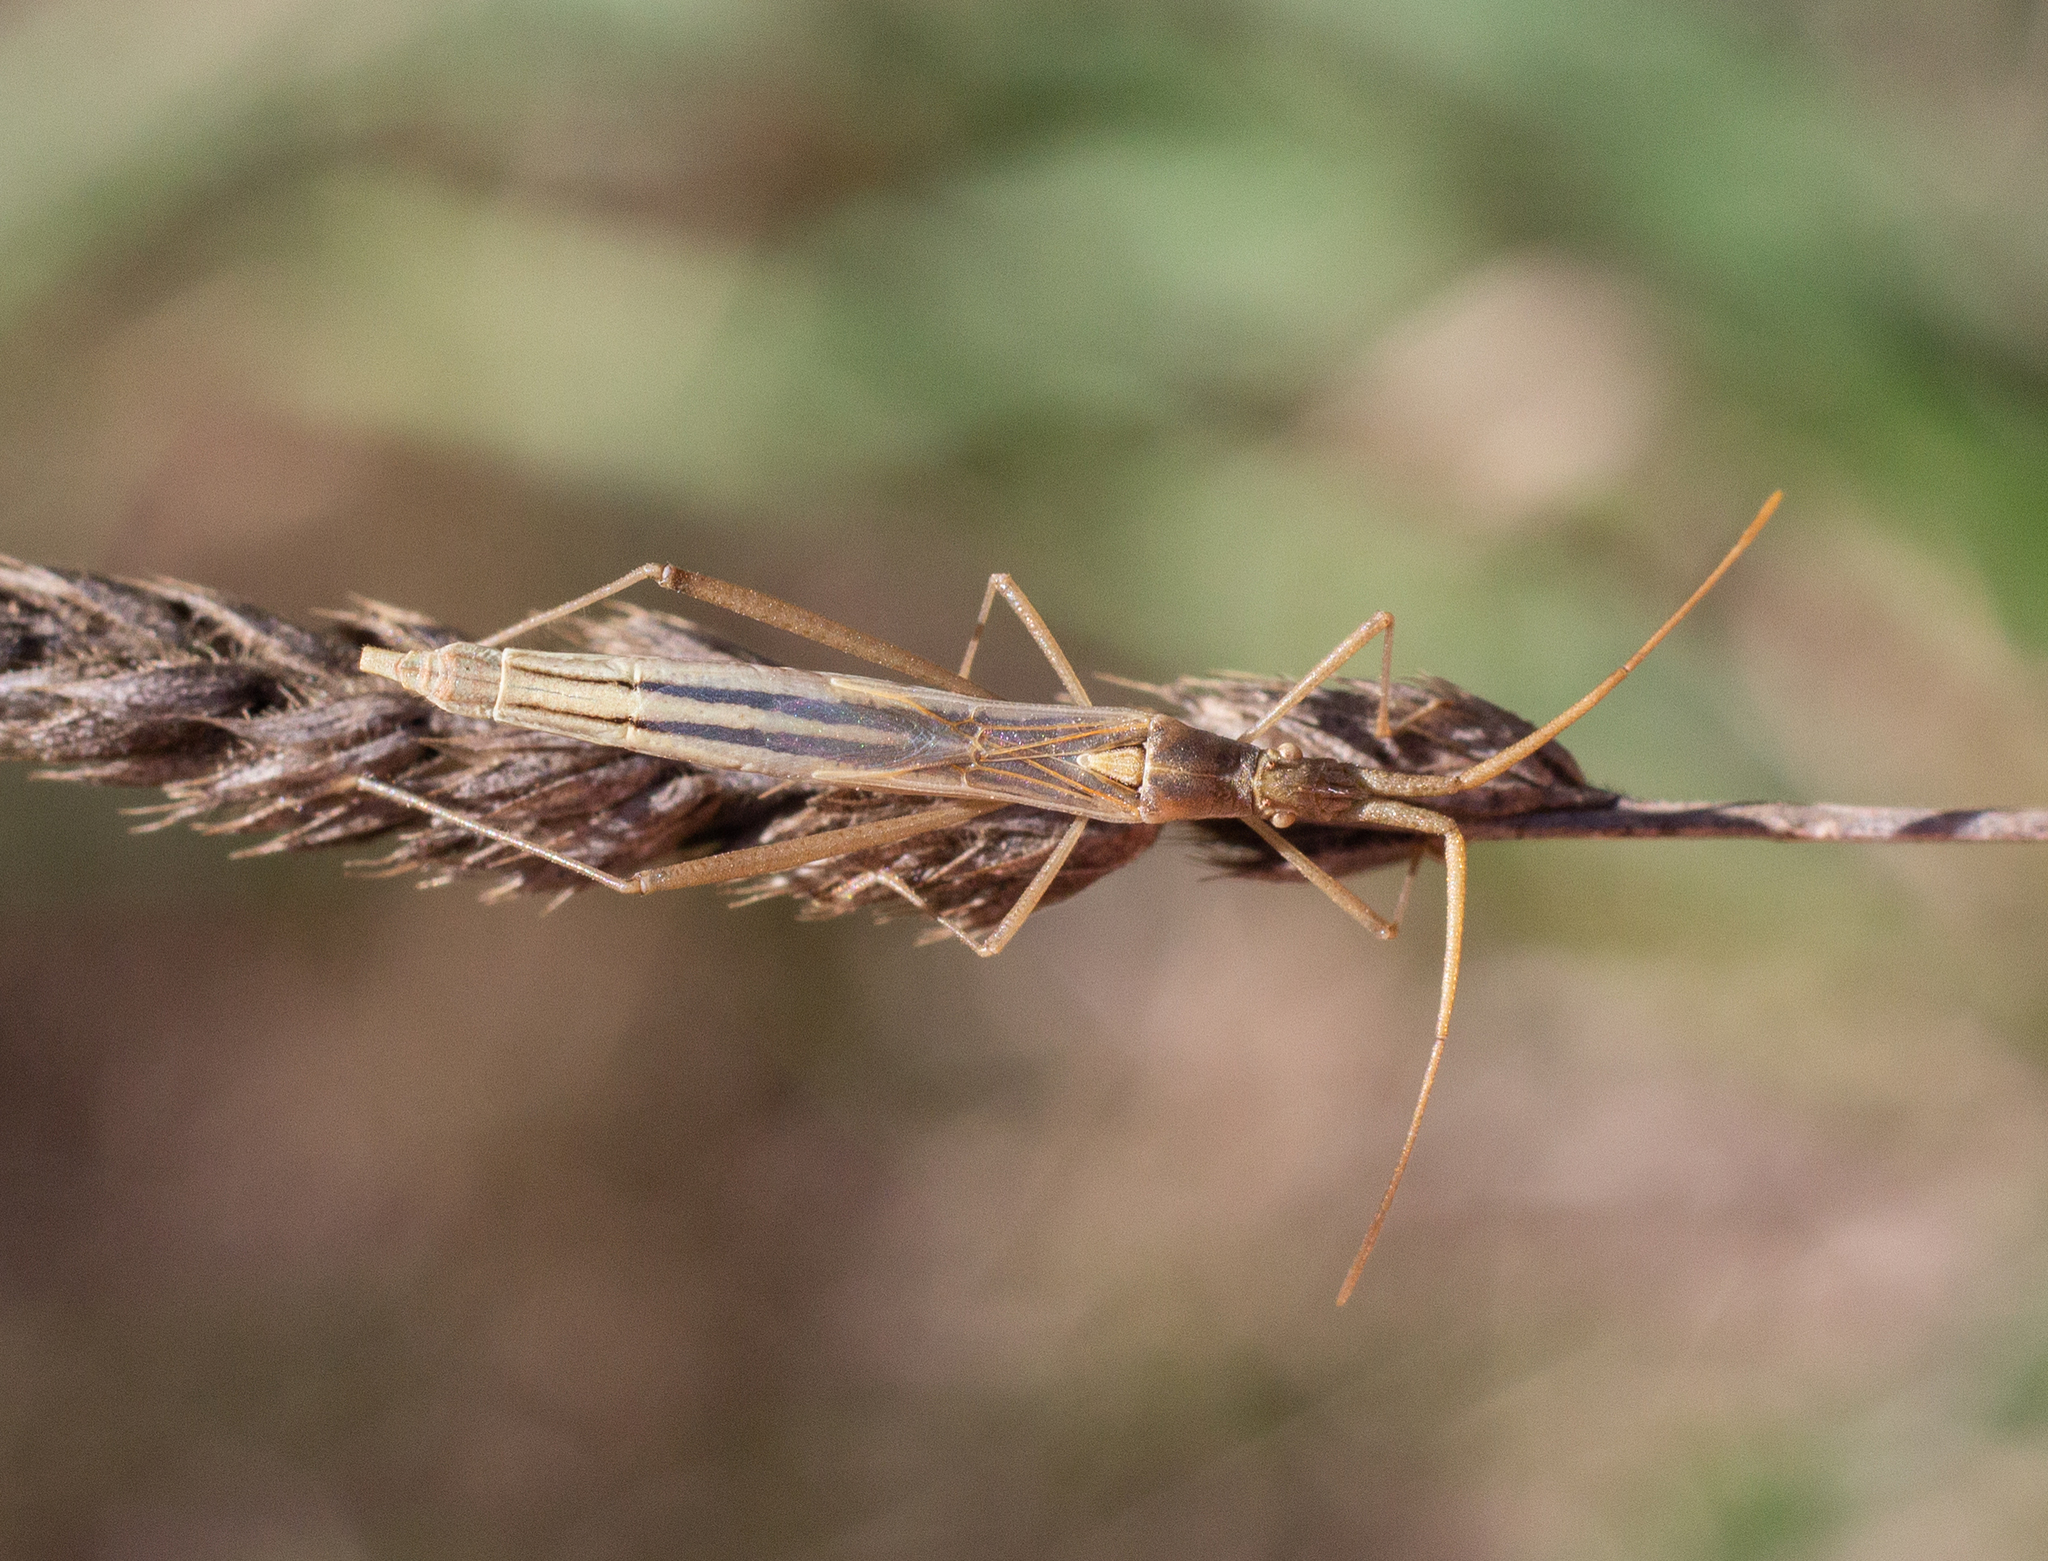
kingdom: Animalia
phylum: Arthropoda
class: Insecta
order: Hemiptera
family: Rhopalidae
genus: Chorosoma
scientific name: Chorosoma schillingii
